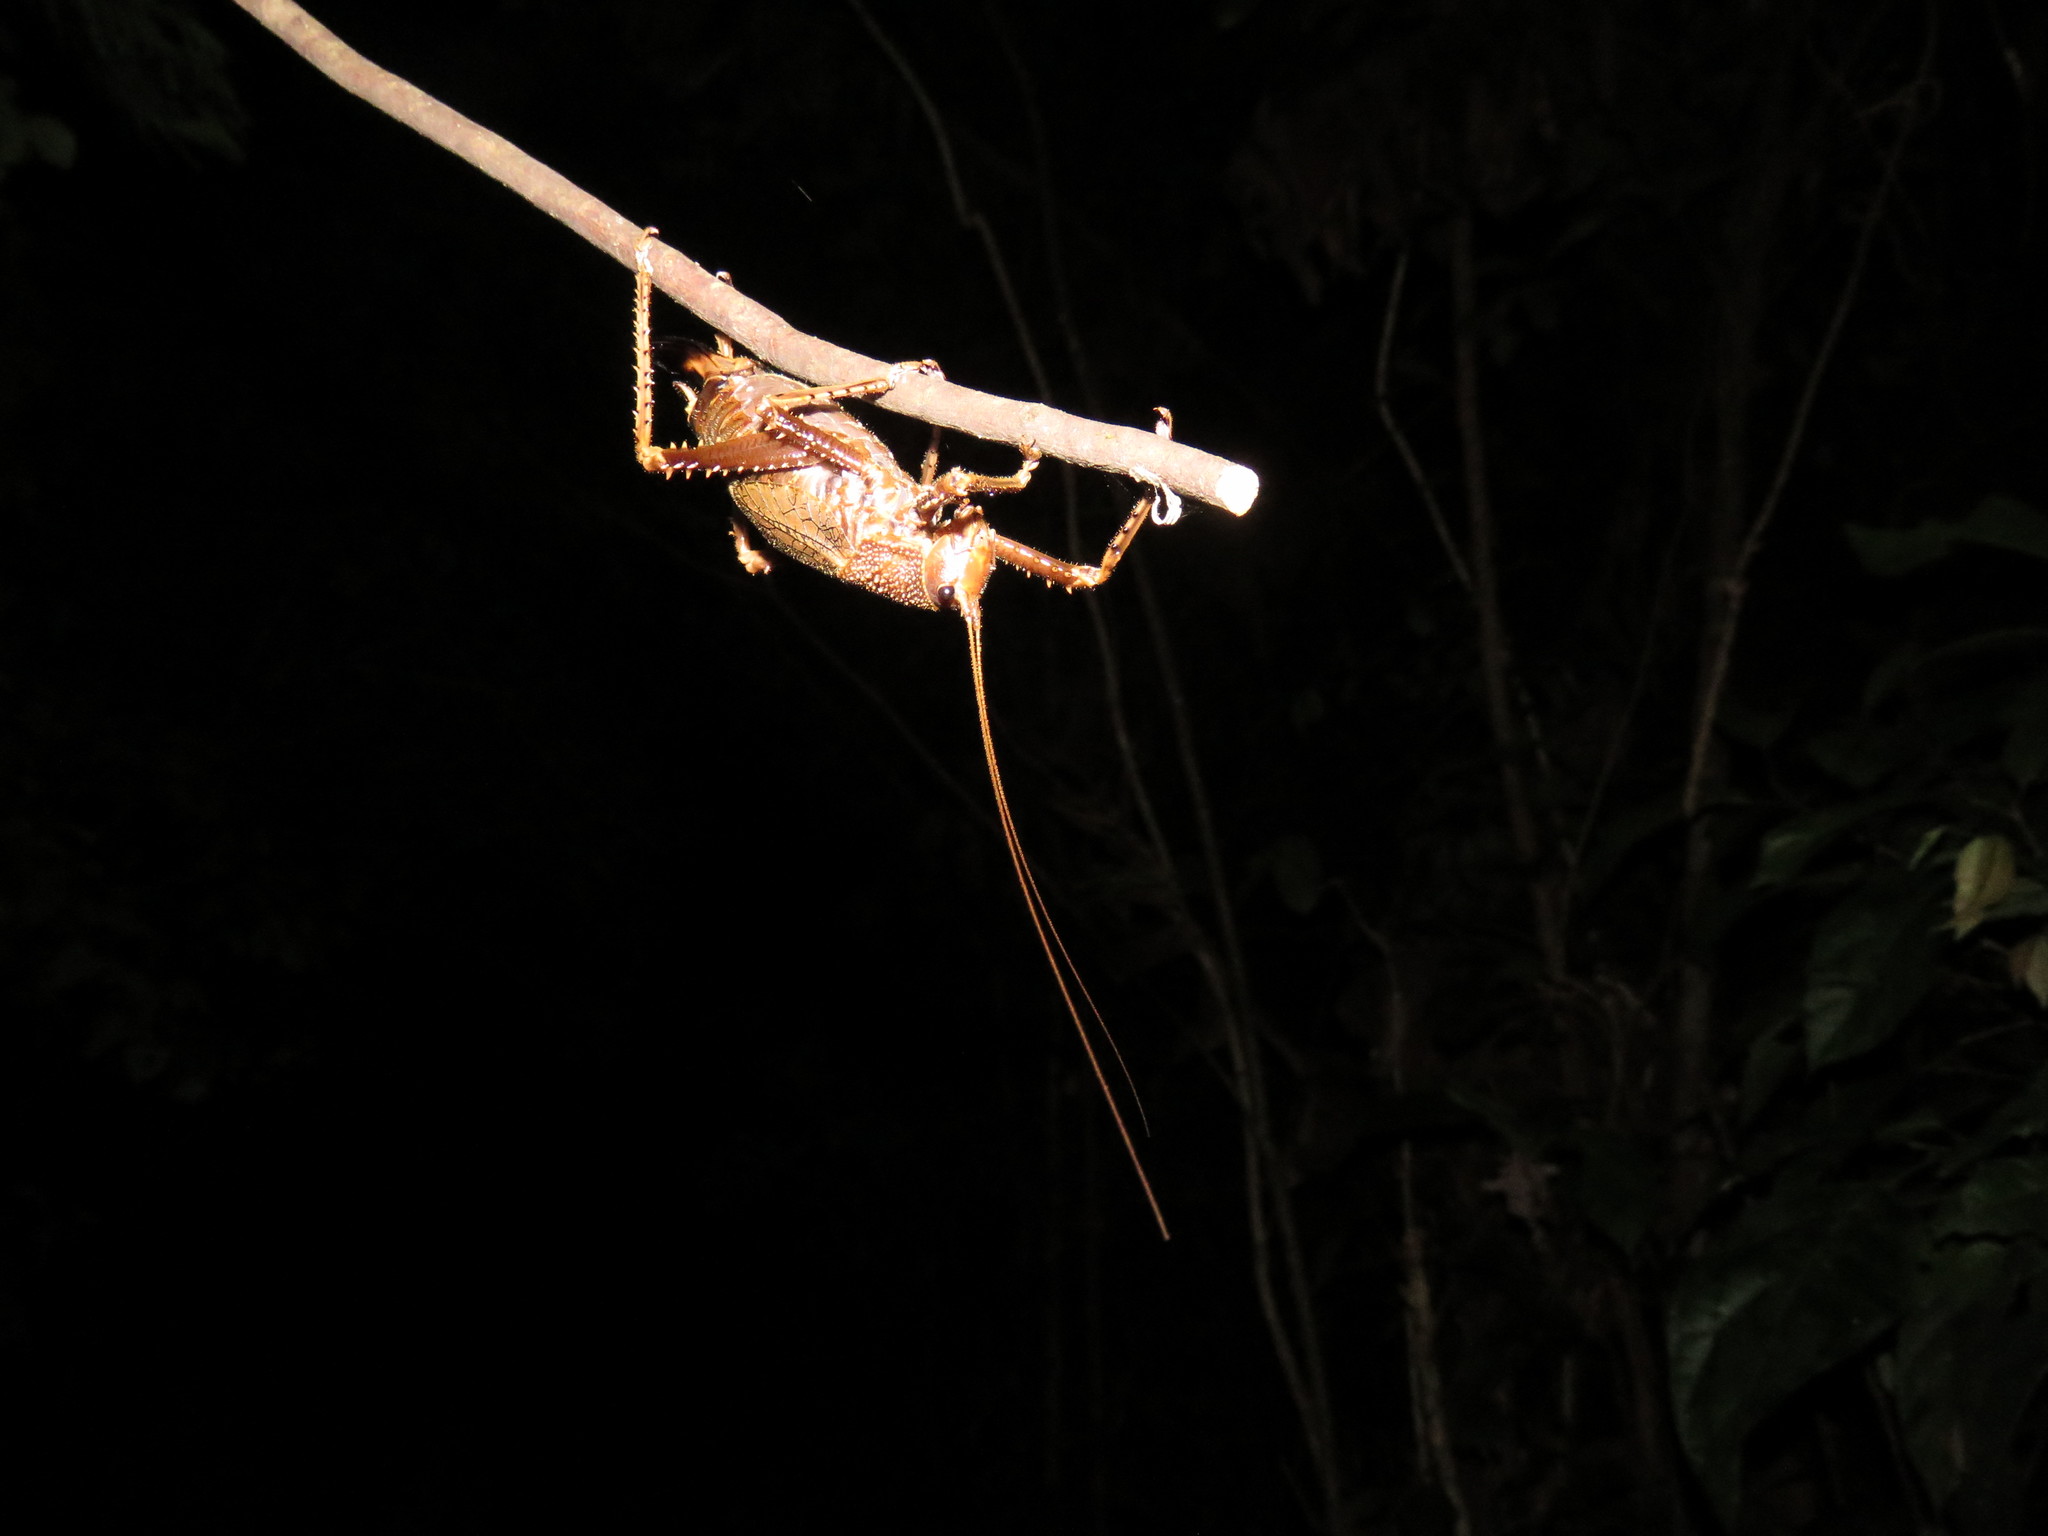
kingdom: Animalia
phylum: Arthropoda
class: Insecta
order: Orthoptera
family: Tettigoniidae
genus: Choeroparnops
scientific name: Choeroparnops forcipatus
